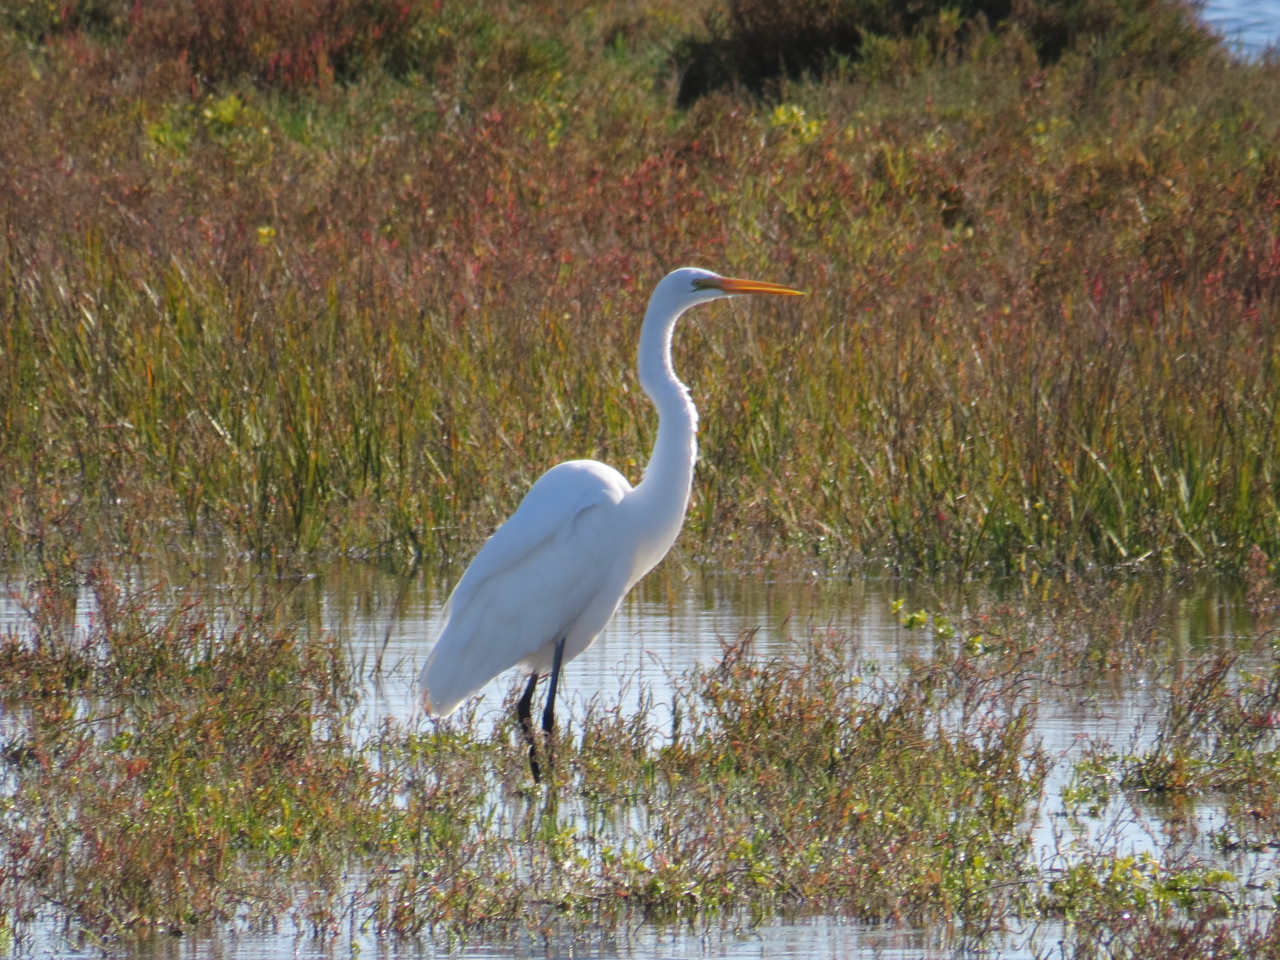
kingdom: Animalia
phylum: Chordata
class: Aves
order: Pelecaniformes
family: Ardeidae
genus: Ardea
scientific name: Ardea alba
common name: Great egret
